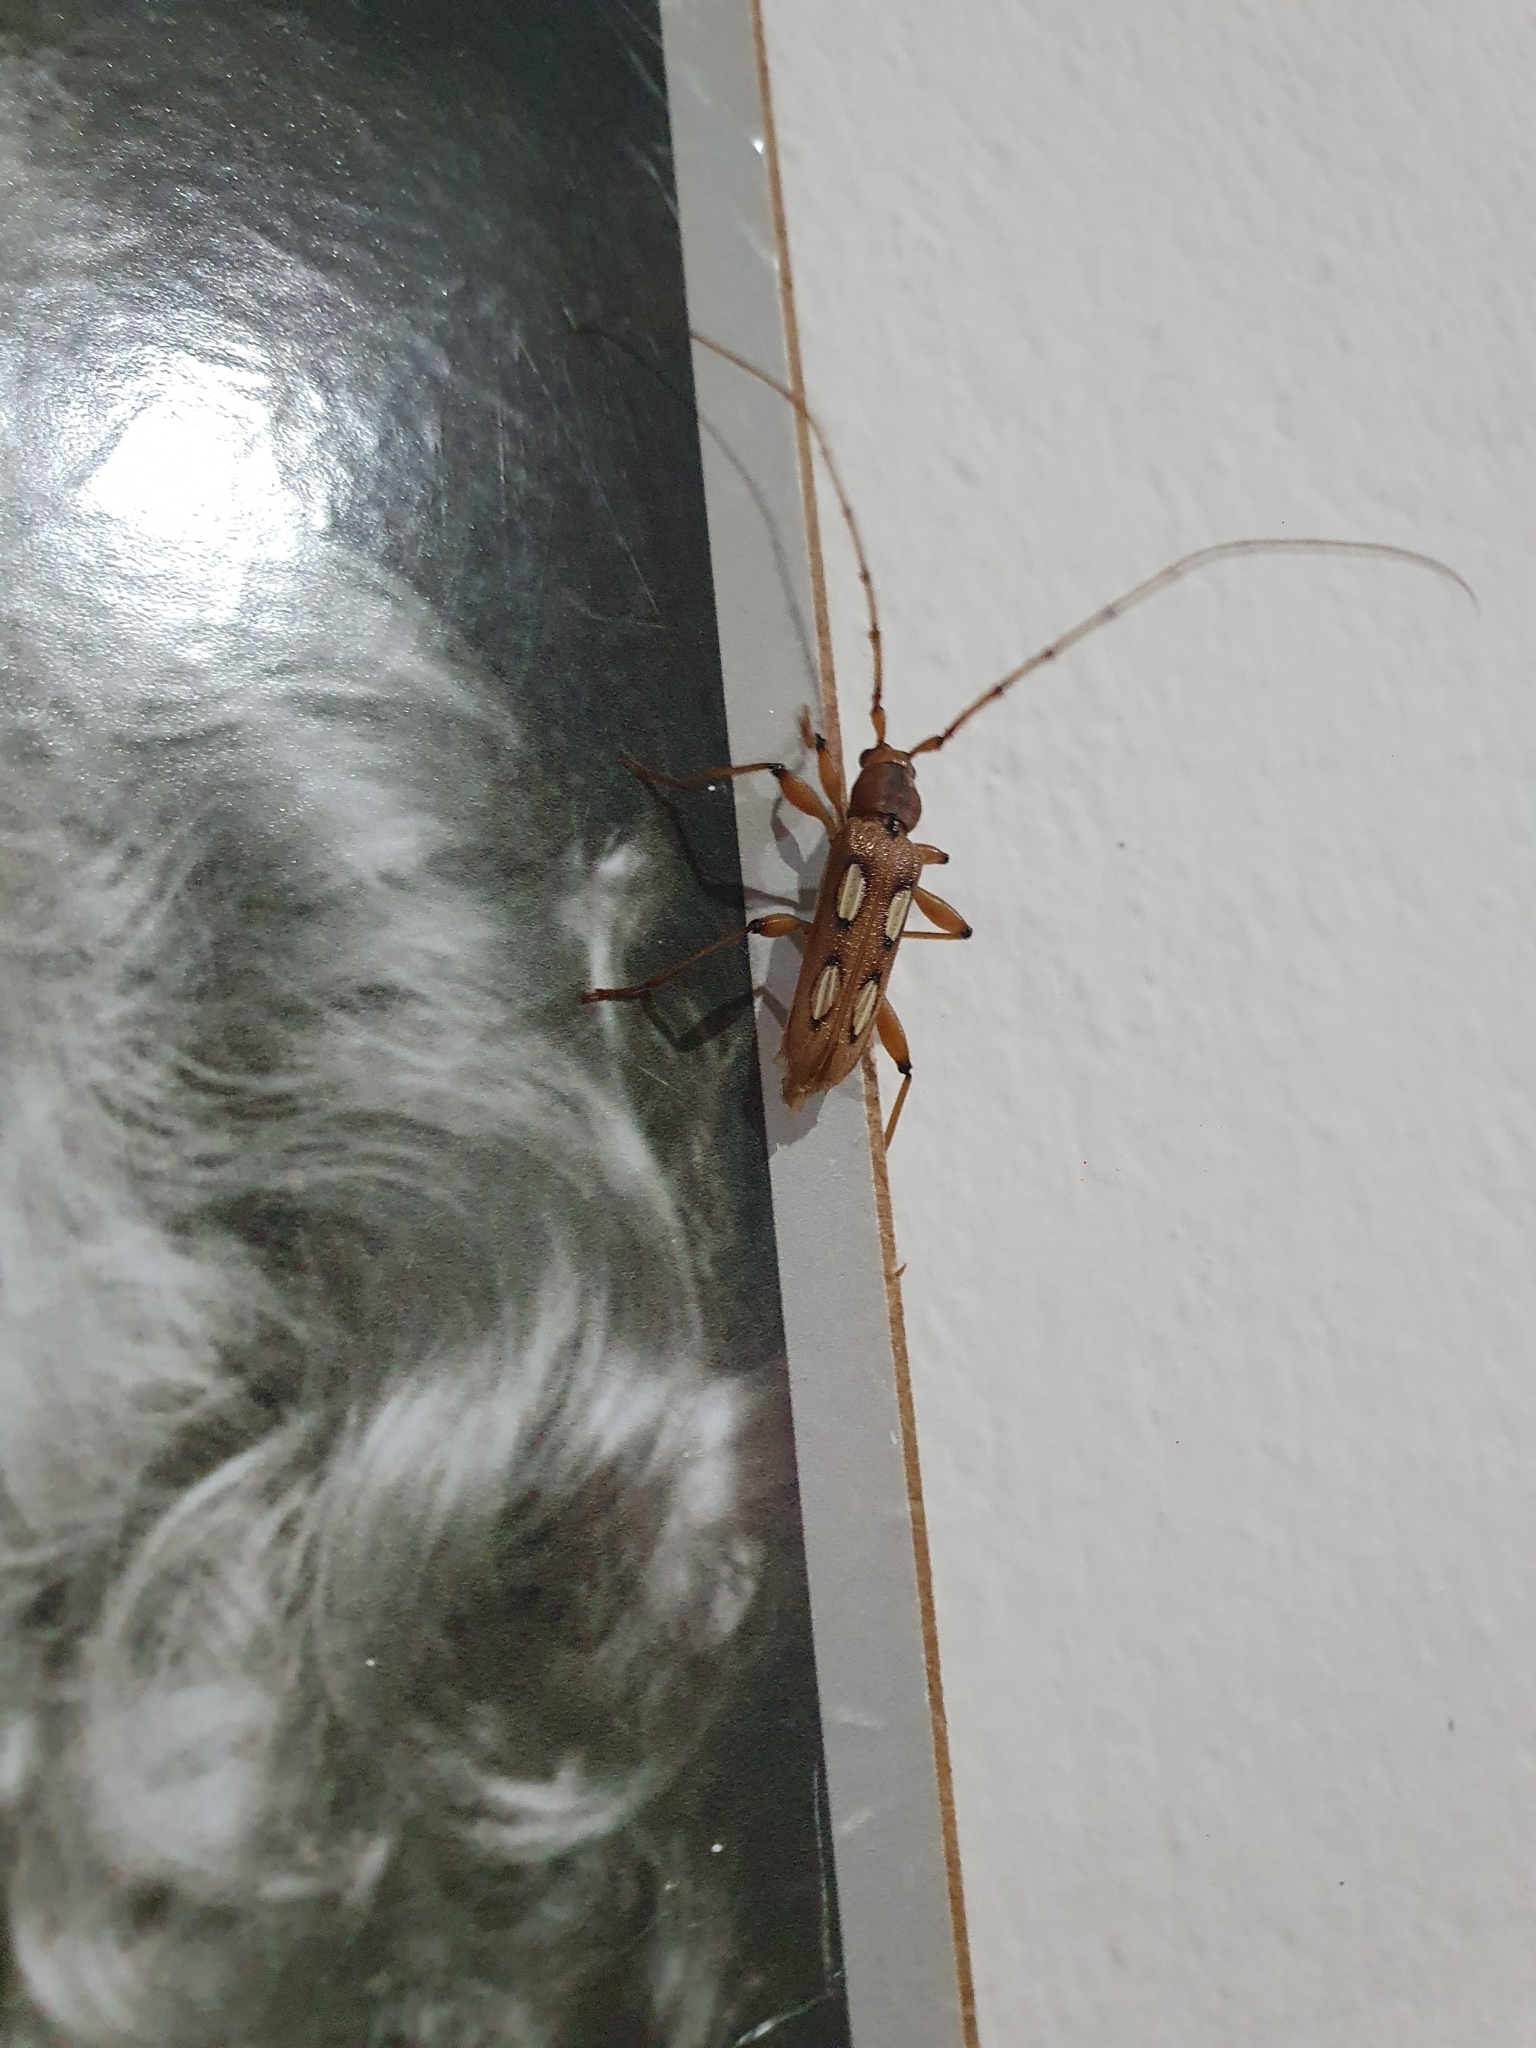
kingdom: Animalia
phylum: Arthropoda
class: Insecta
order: Coleoptera
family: Cerambycidae
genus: Anoplomerus
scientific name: Anoplomerus rotundicollis
